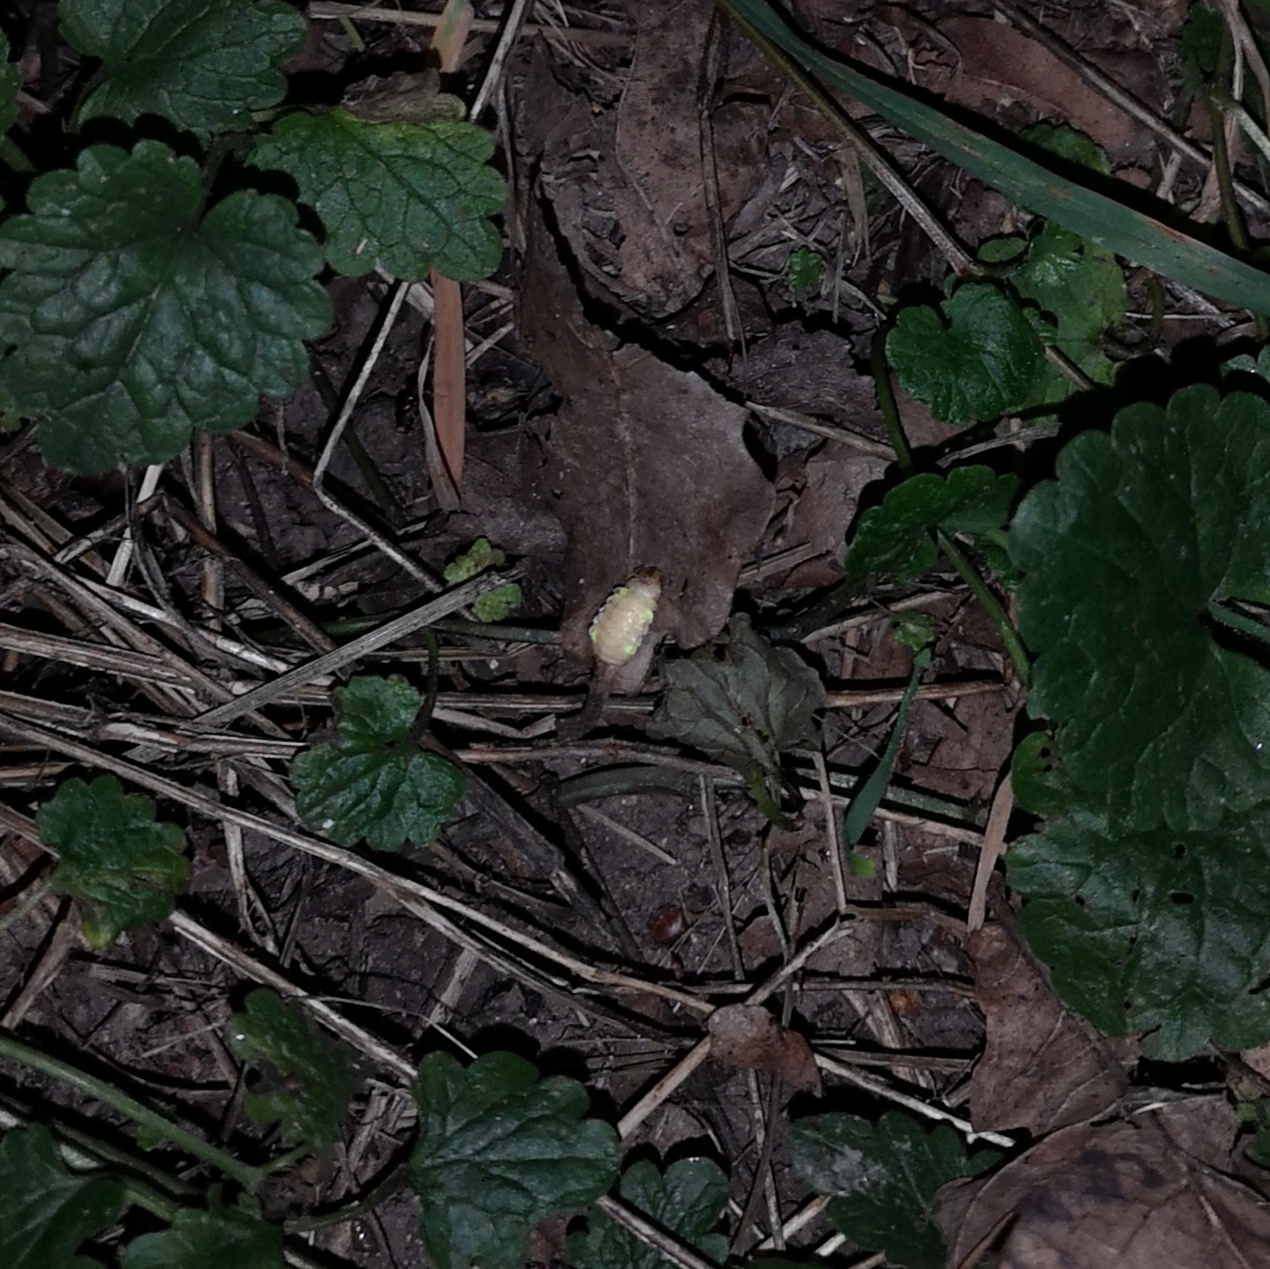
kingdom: Animalia
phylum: Arthropoda
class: Insecta
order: Coleoptera
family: Lampyridae
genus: Lamprohiza
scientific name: Lamprohiza splendidula
